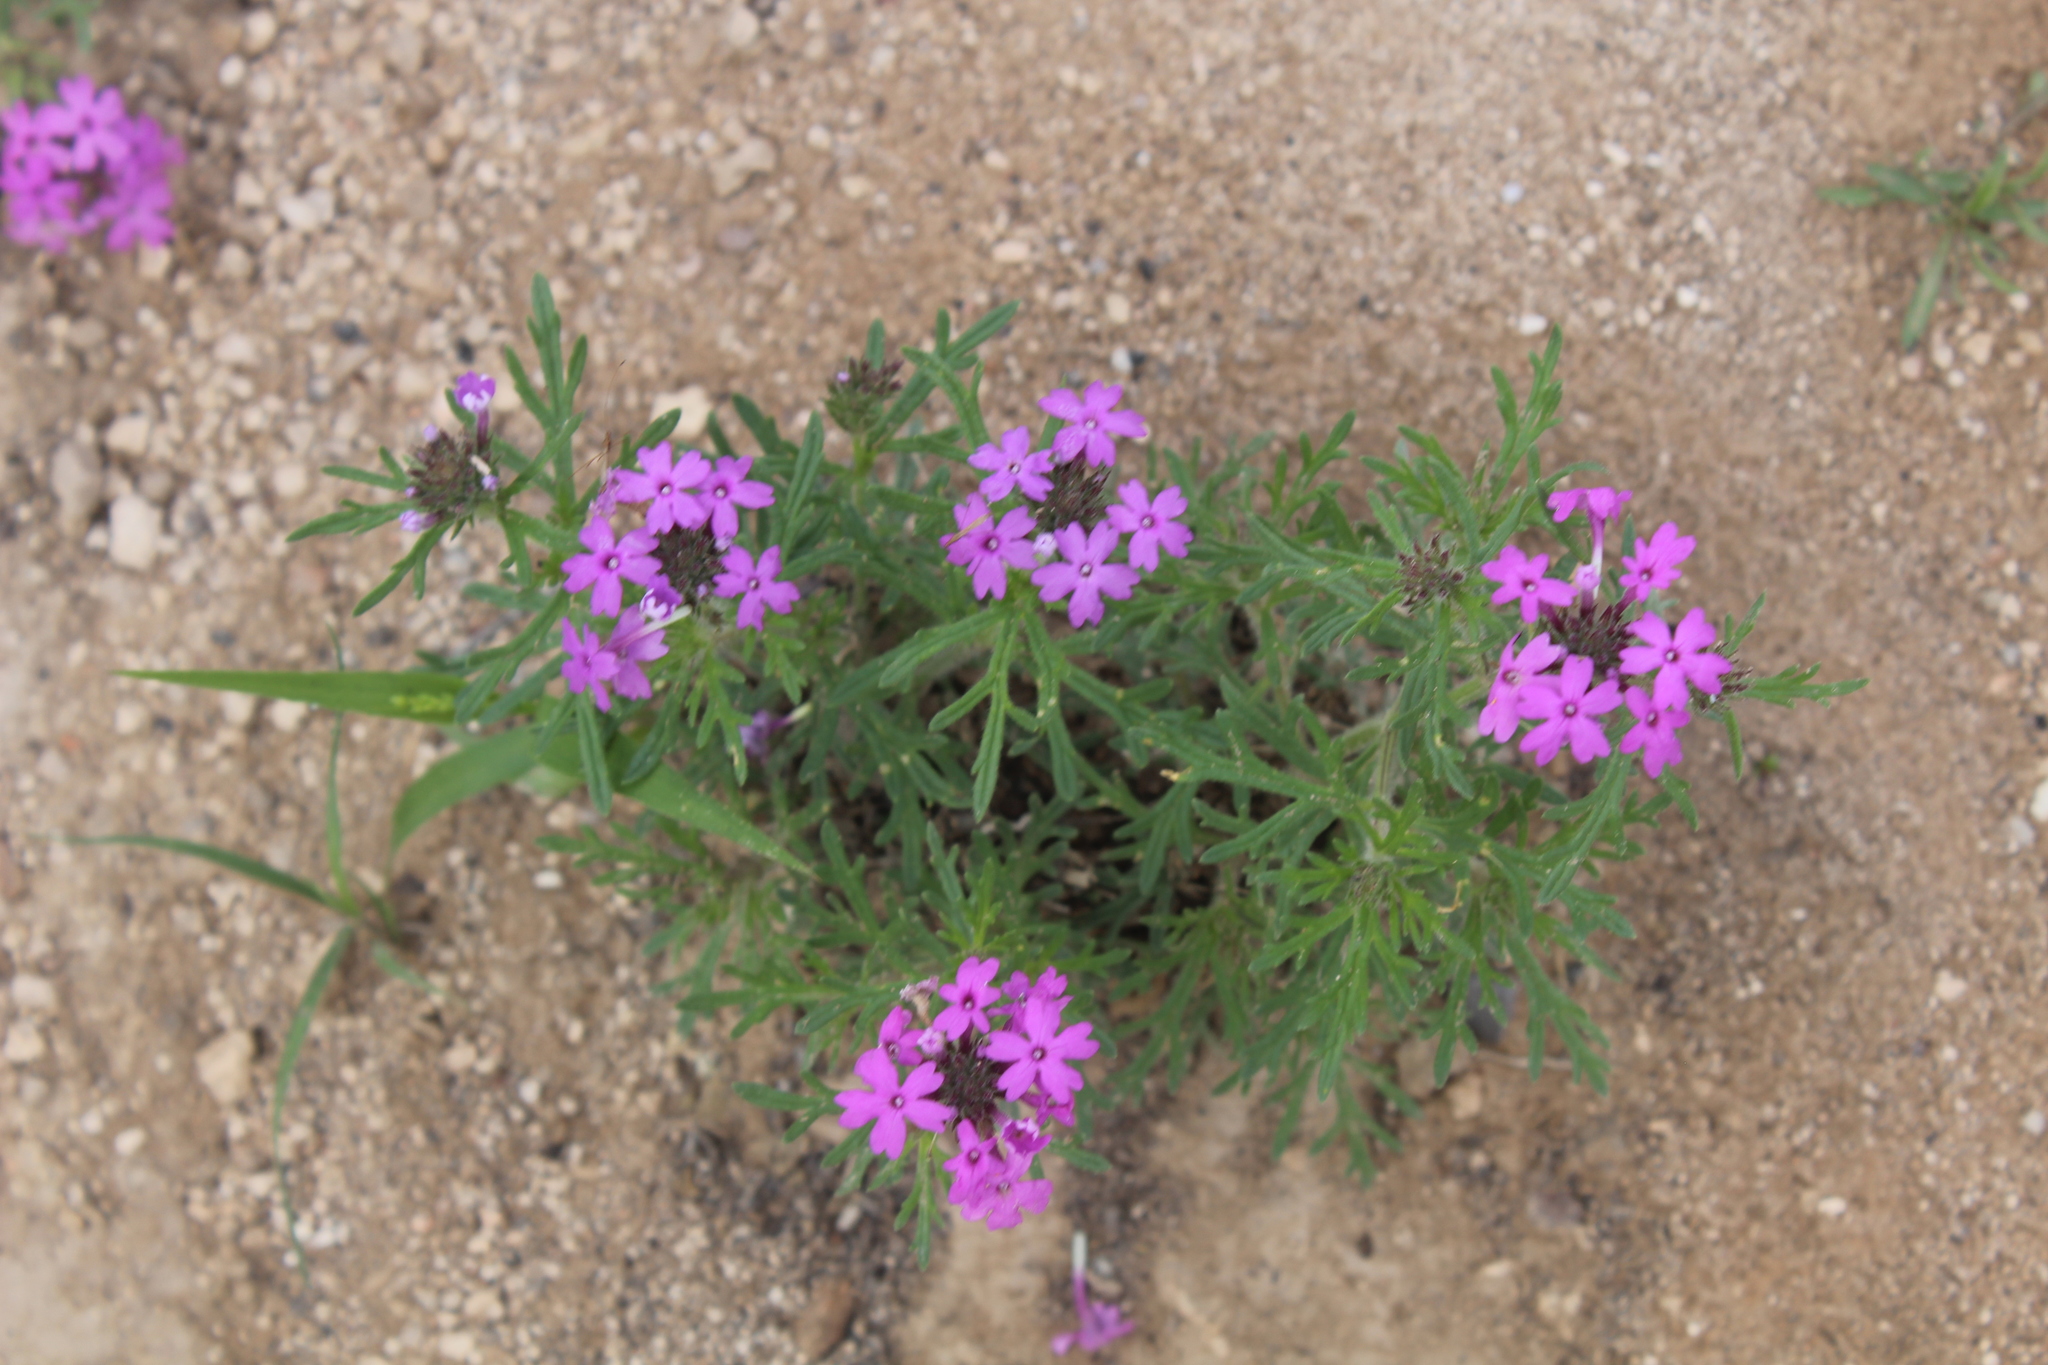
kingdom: Plantae
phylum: Tracheophyta
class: Magnoliopsida
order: Lamiales
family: Verbenaceae
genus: Verbena
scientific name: Verbena bipinnatifida
